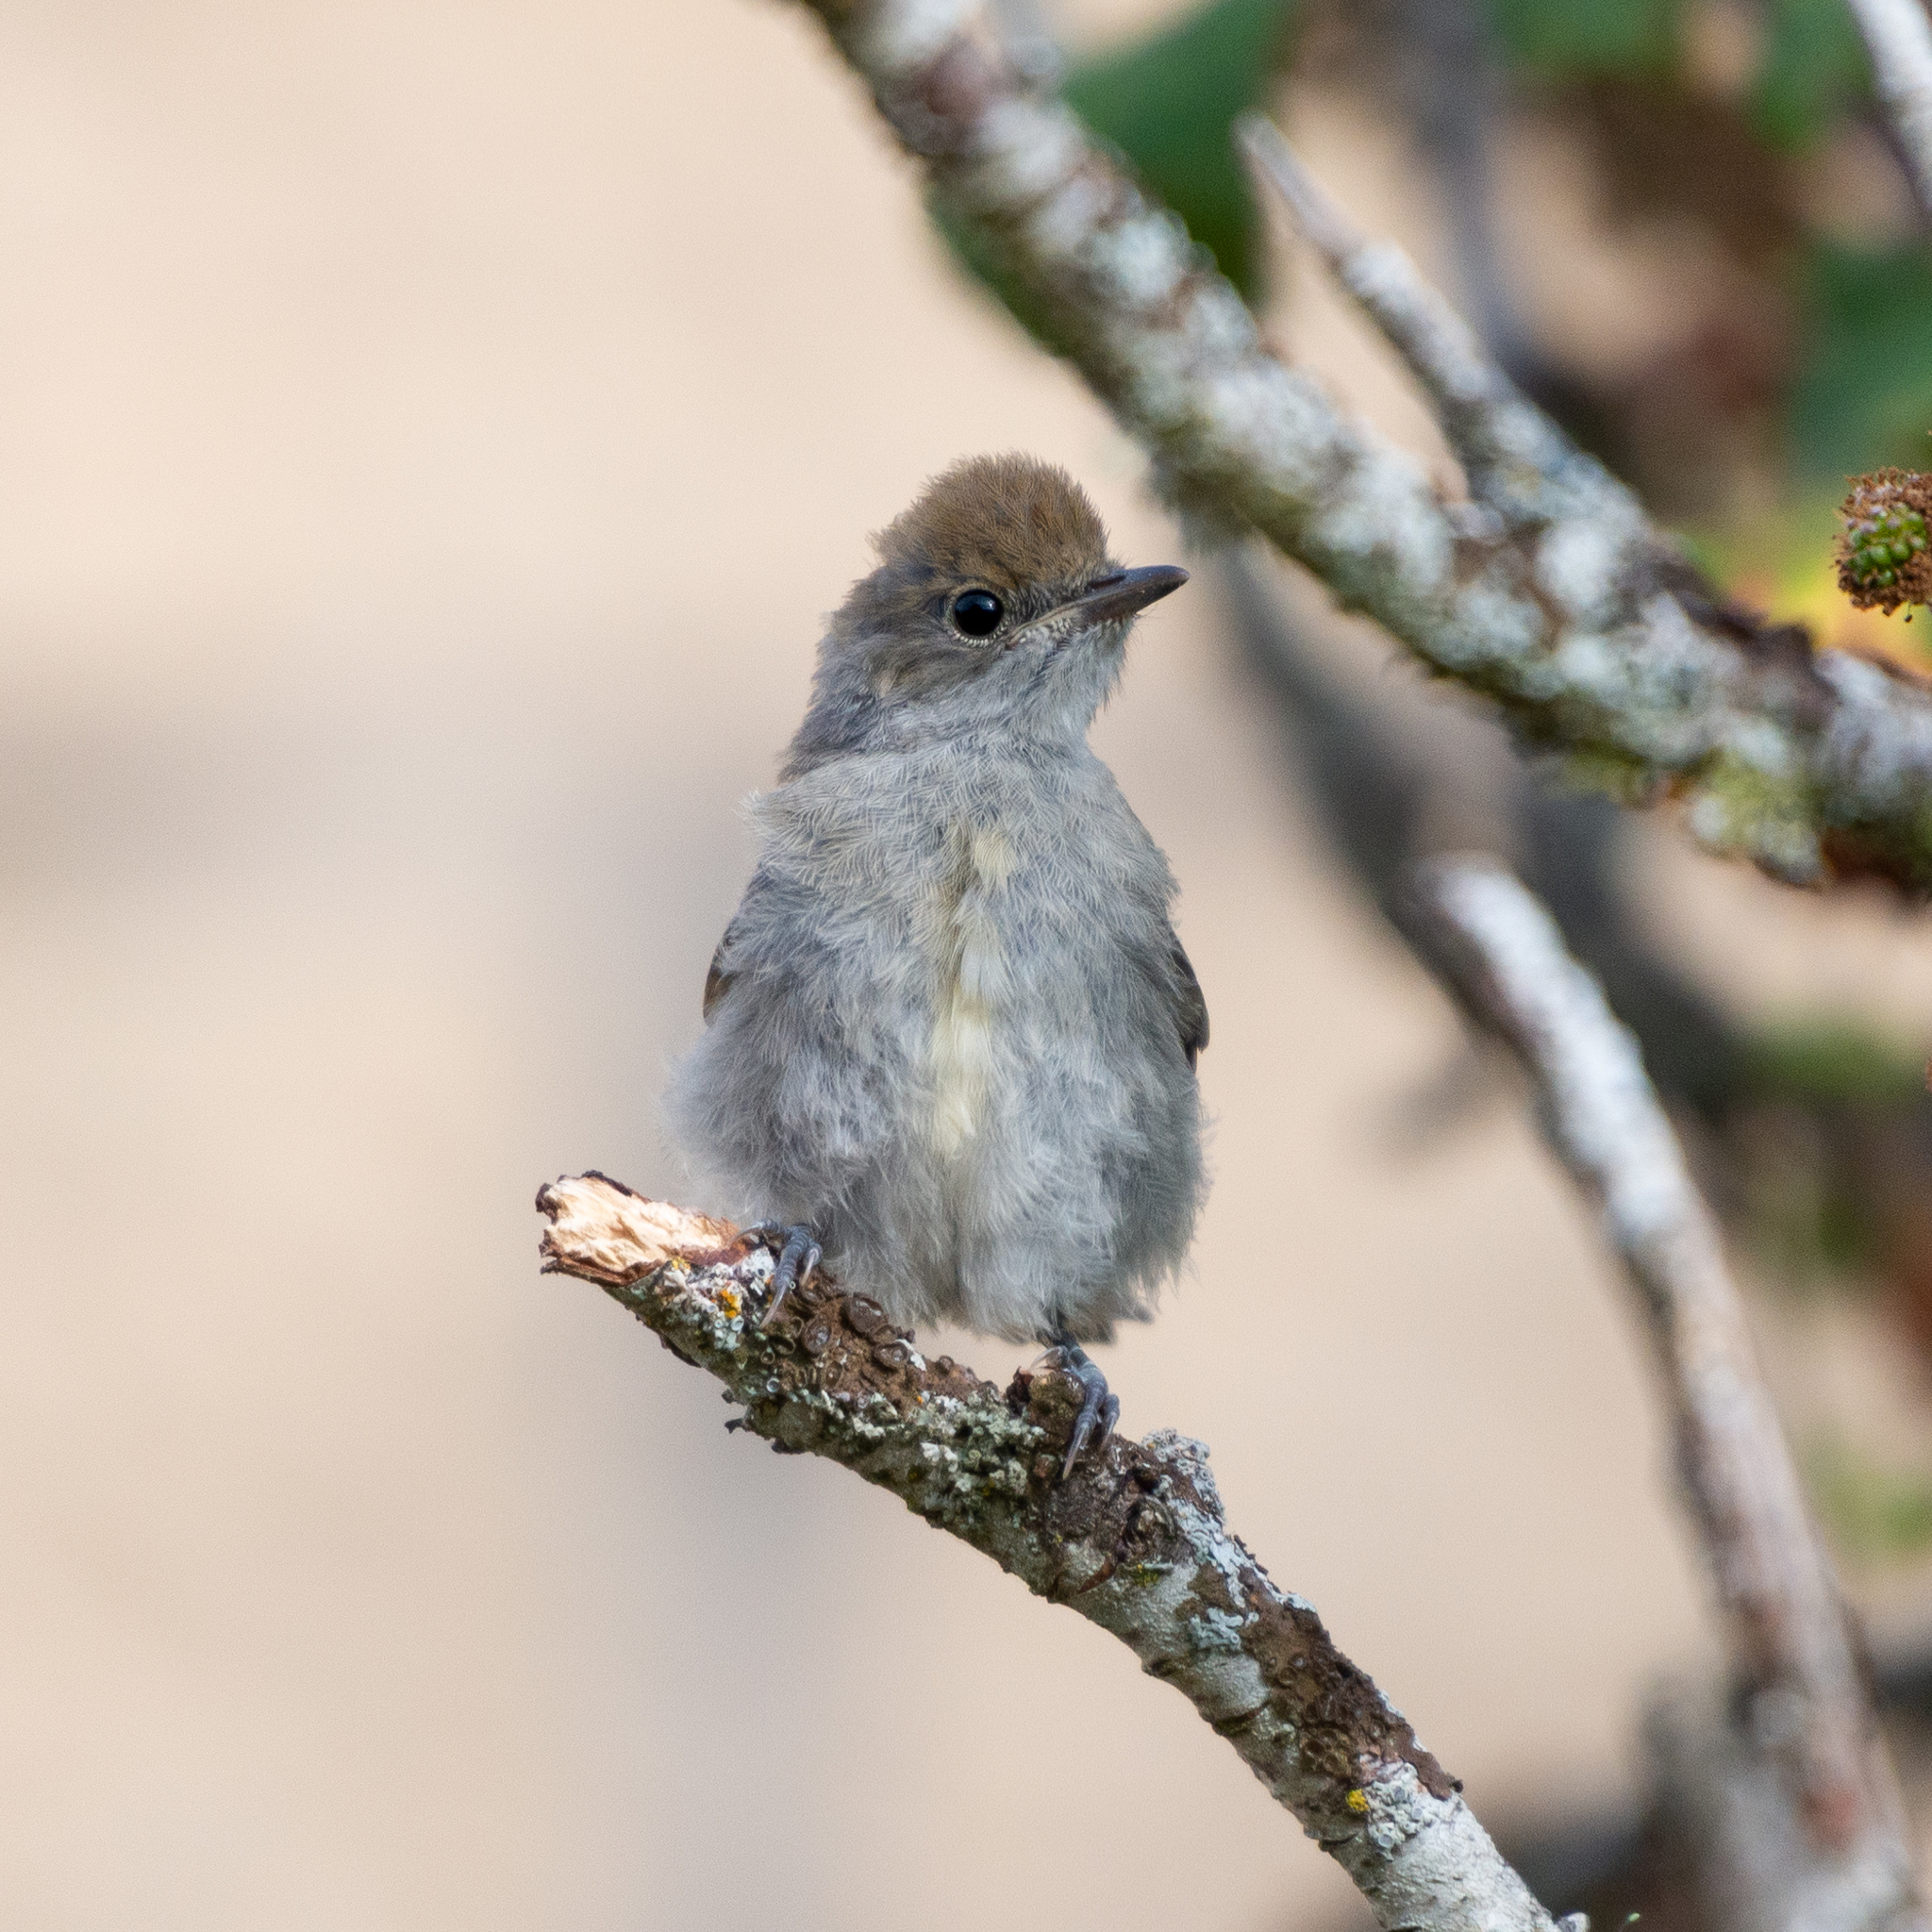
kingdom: Animalia
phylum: Chordata
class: Aves
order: Passeriformes
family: Sylviidae
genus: Sylvia
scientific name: Sylvia atricapilla
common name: Eurasian blackcap
